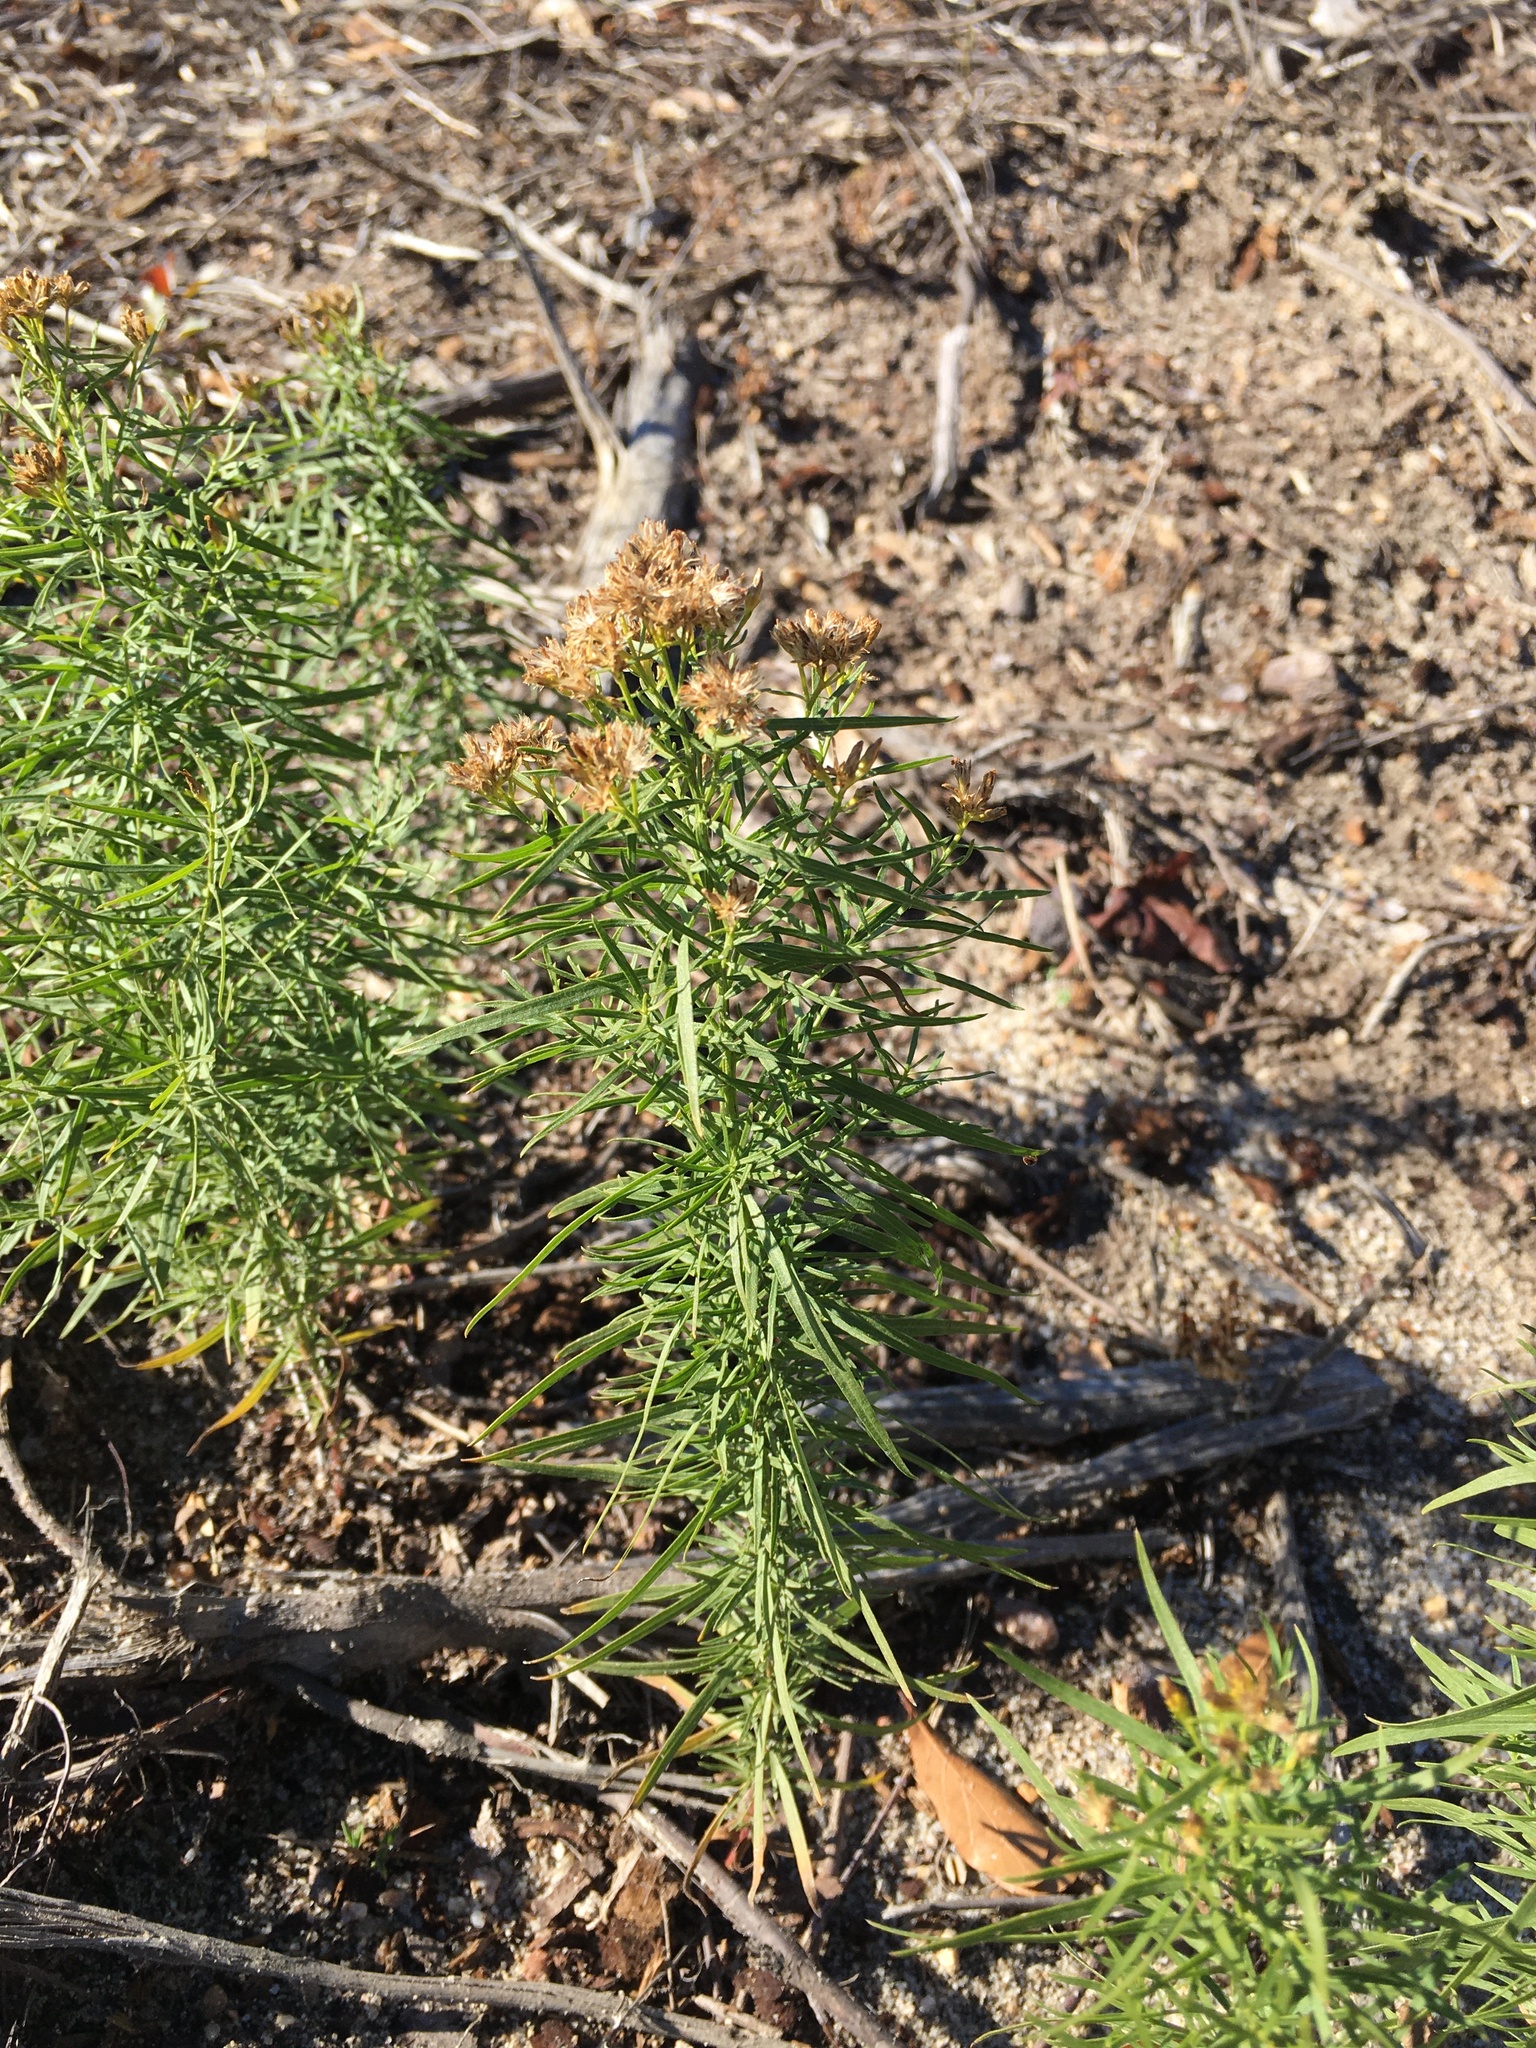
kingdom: Plantae
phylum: Tracheophyta
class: Magnoliopsida
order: Asterales
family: Asteraceae
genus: Euthamia
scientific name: Euthamia caroliniana
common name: Coastal plain goldentop
